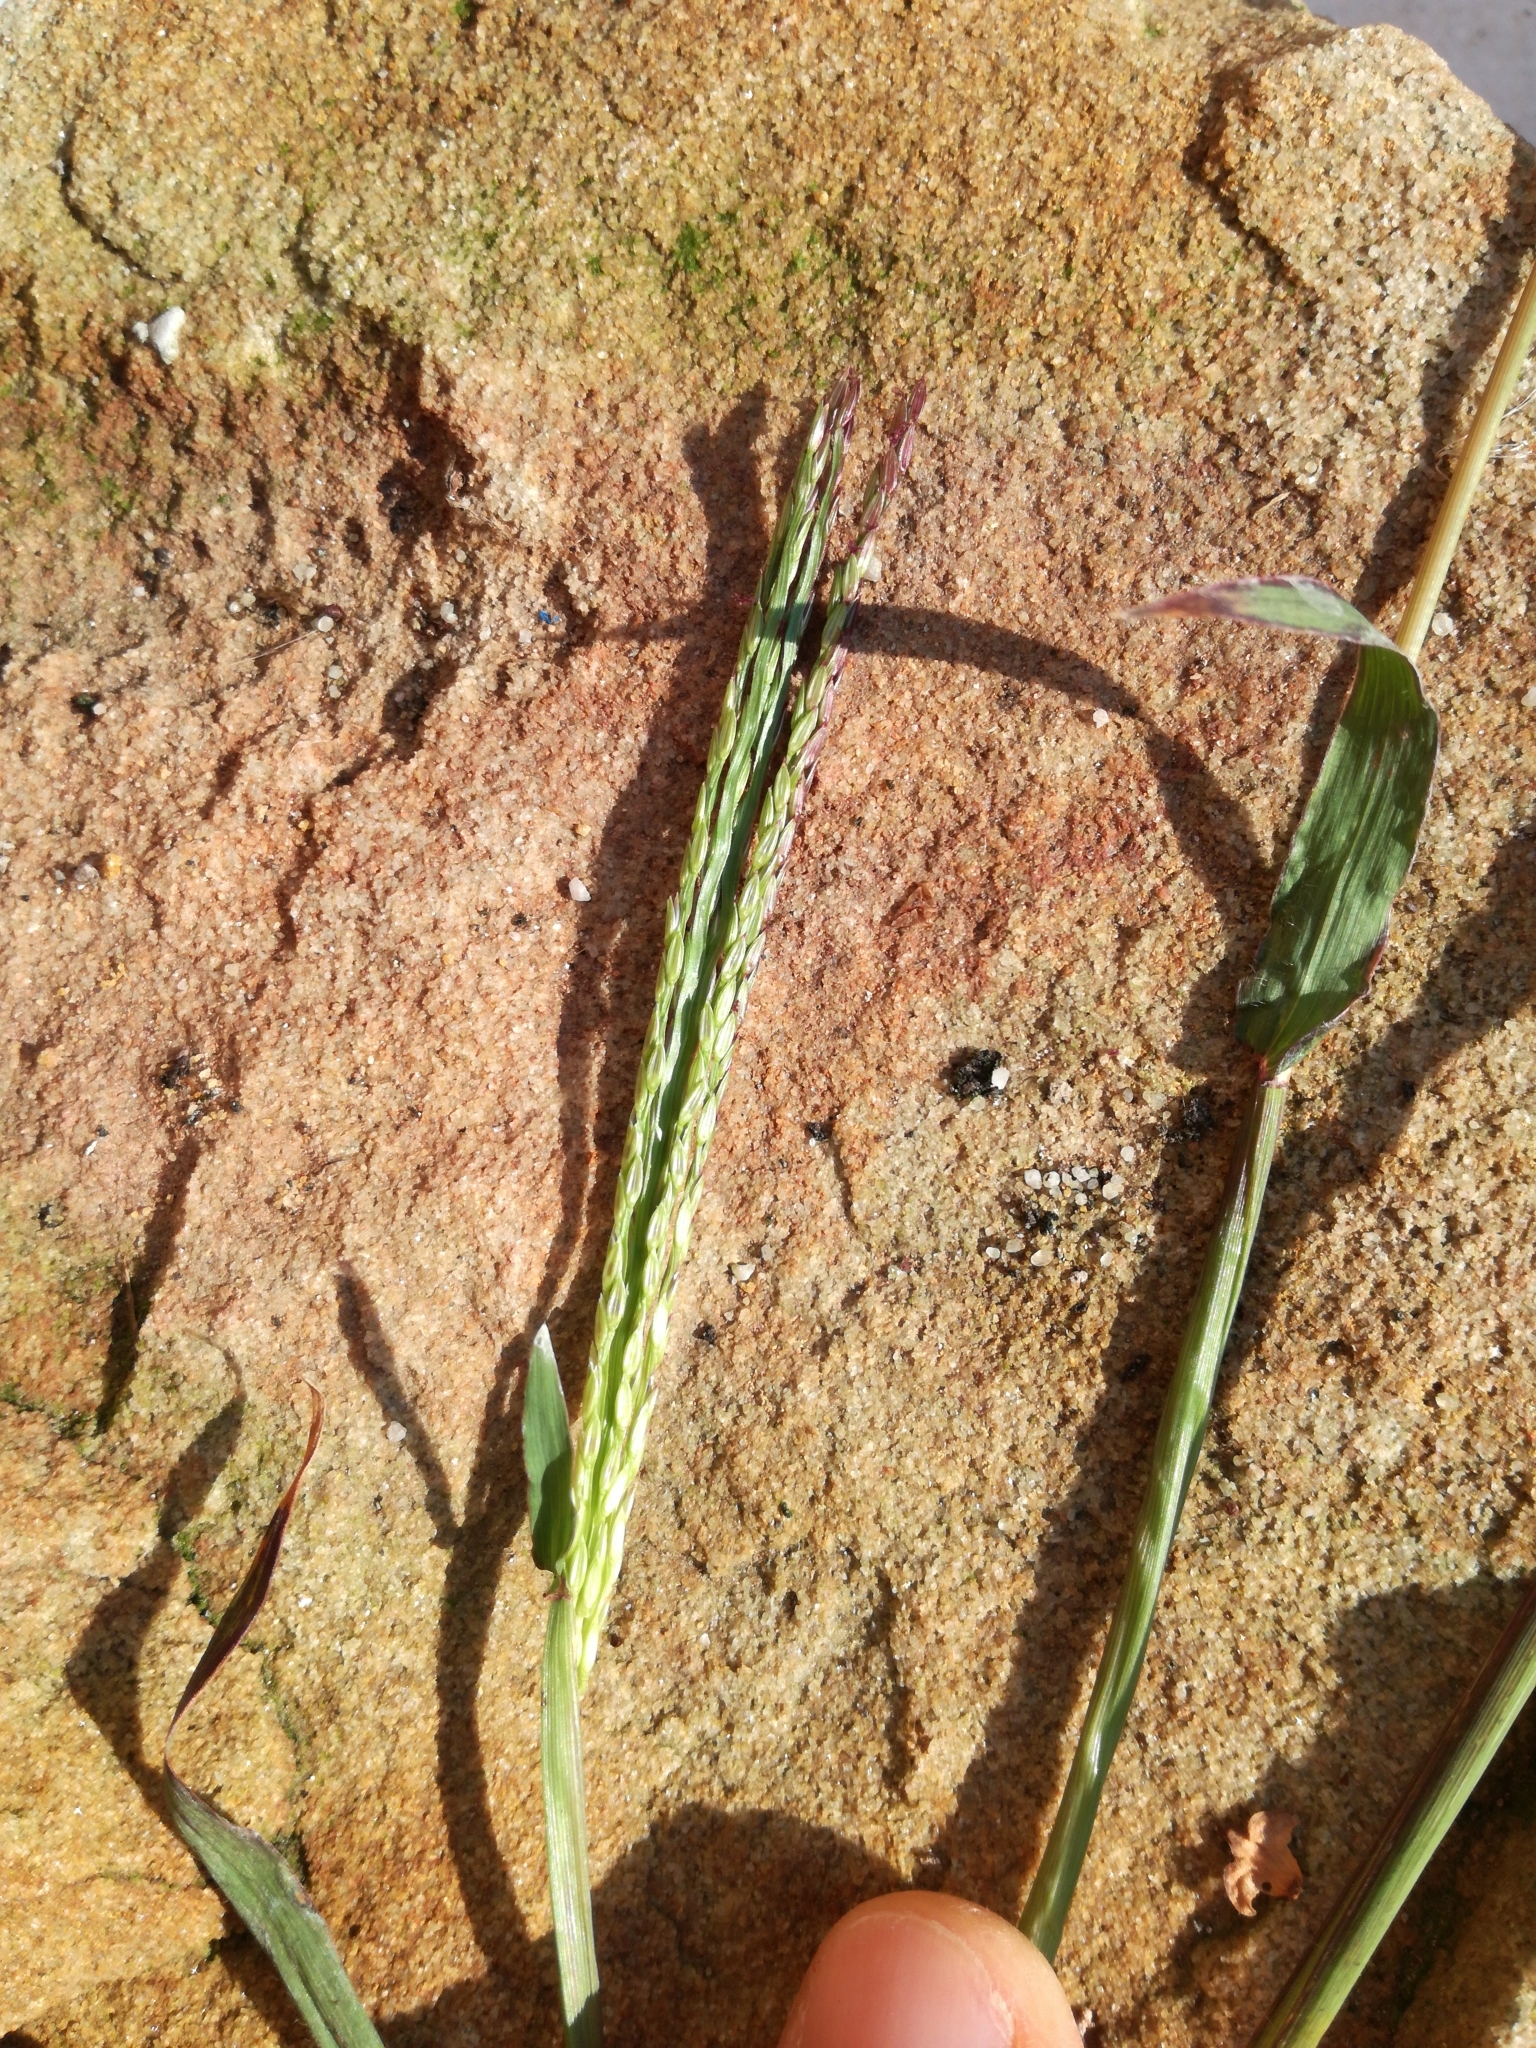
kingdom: Plantae
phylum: Tracheophyta
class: Liliopsida
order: Poales
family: Poaceae
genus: Digitaria
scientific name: Digitaria sanguinalis
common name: Hairy crabgrass
